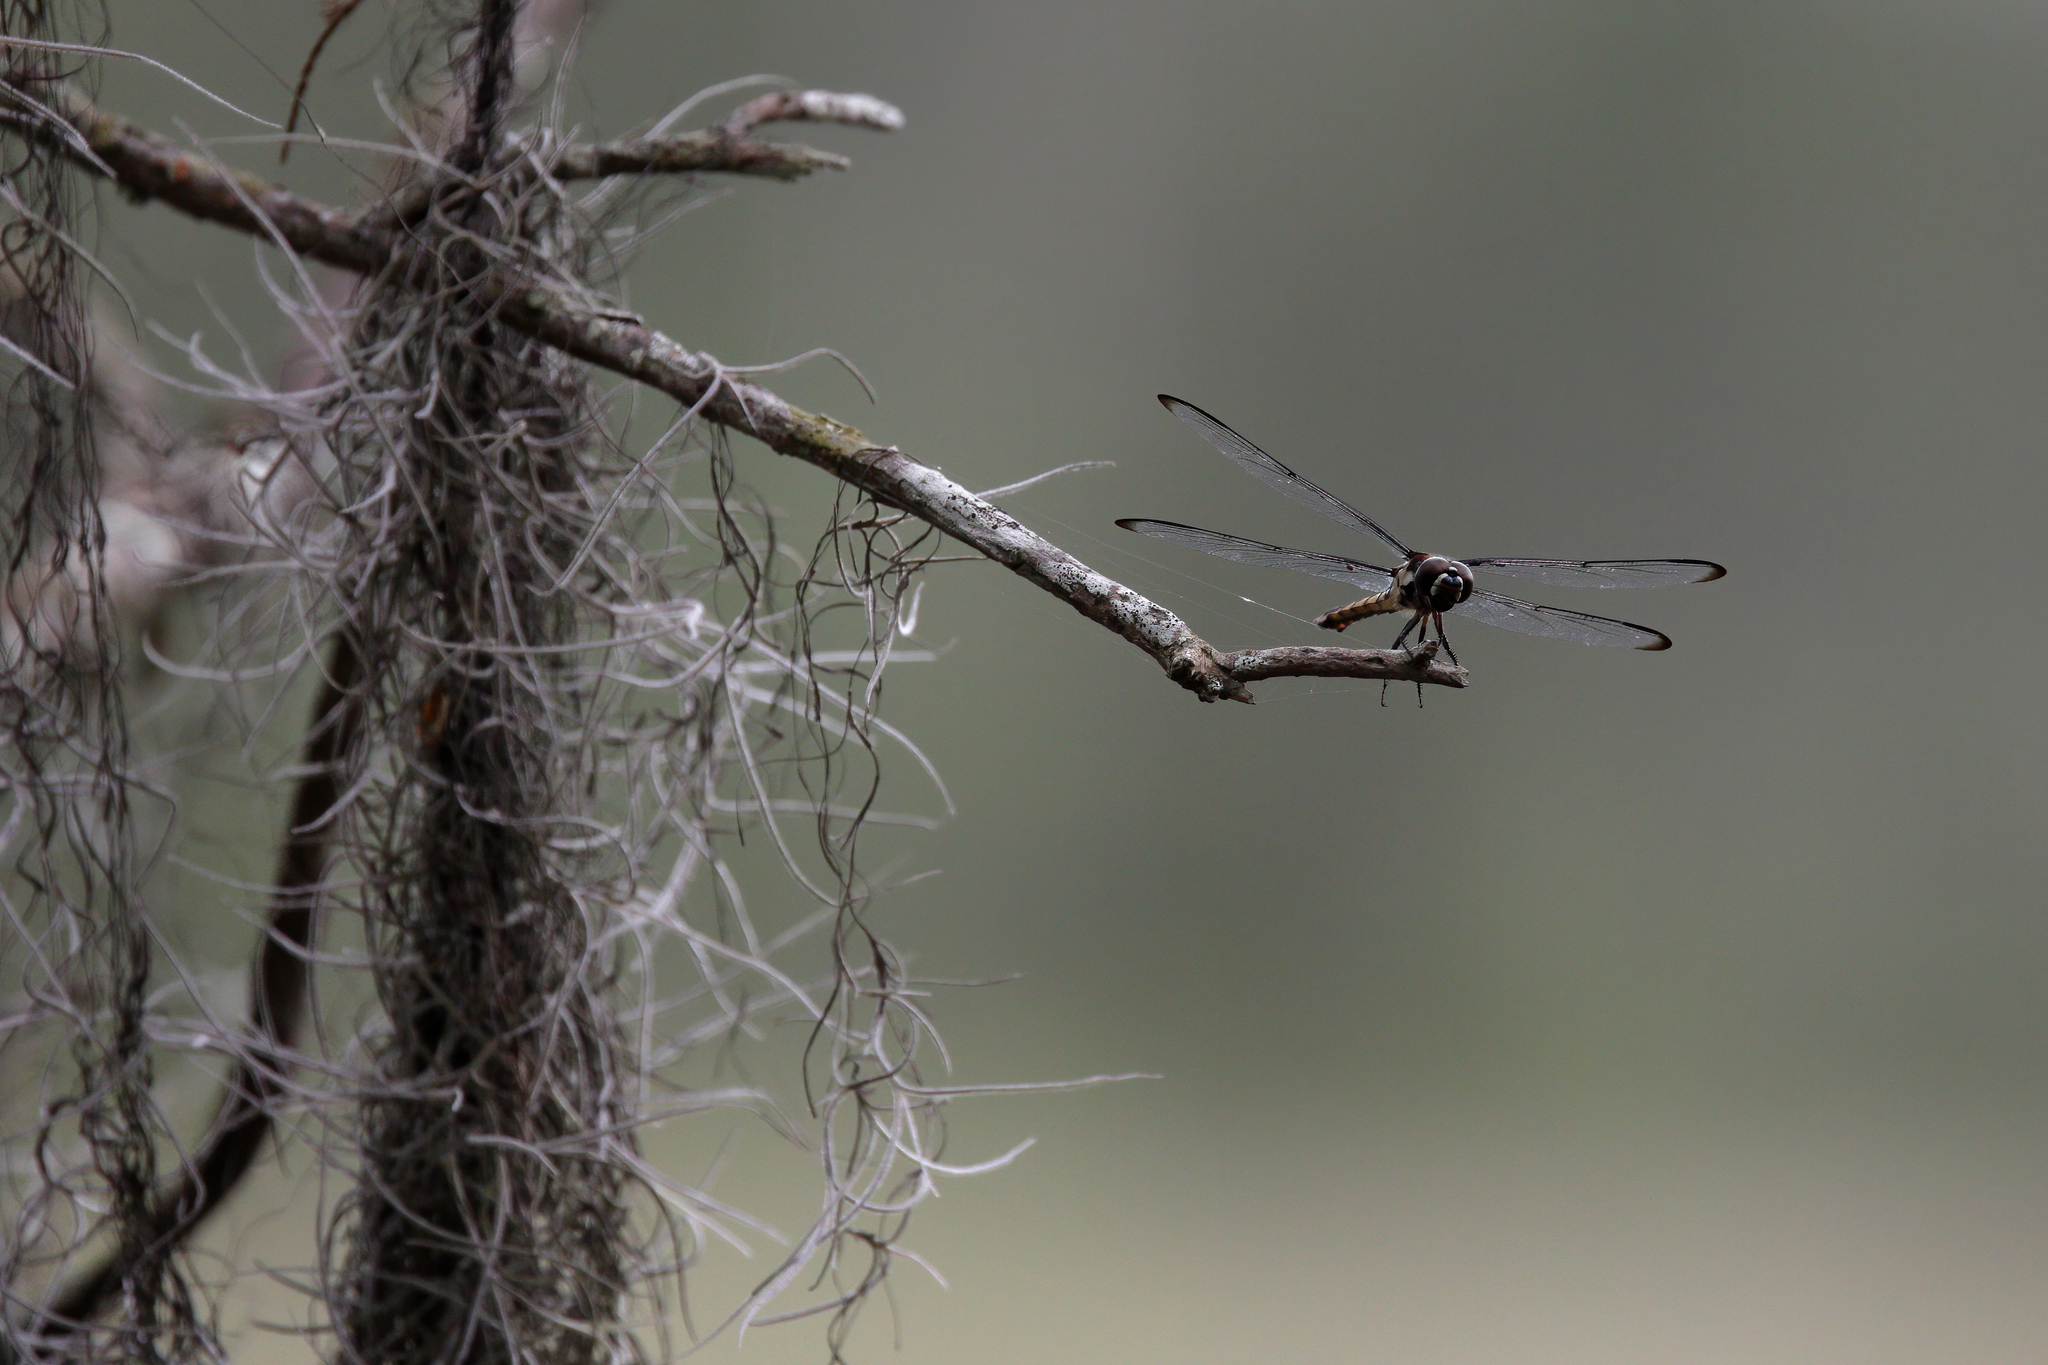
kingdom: Animalia
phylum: Arthropoda
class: Insecta
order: Odonata
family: Libellulidae
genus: Libellula
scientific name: Libellula axilena
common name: Bar-winged skimmer
